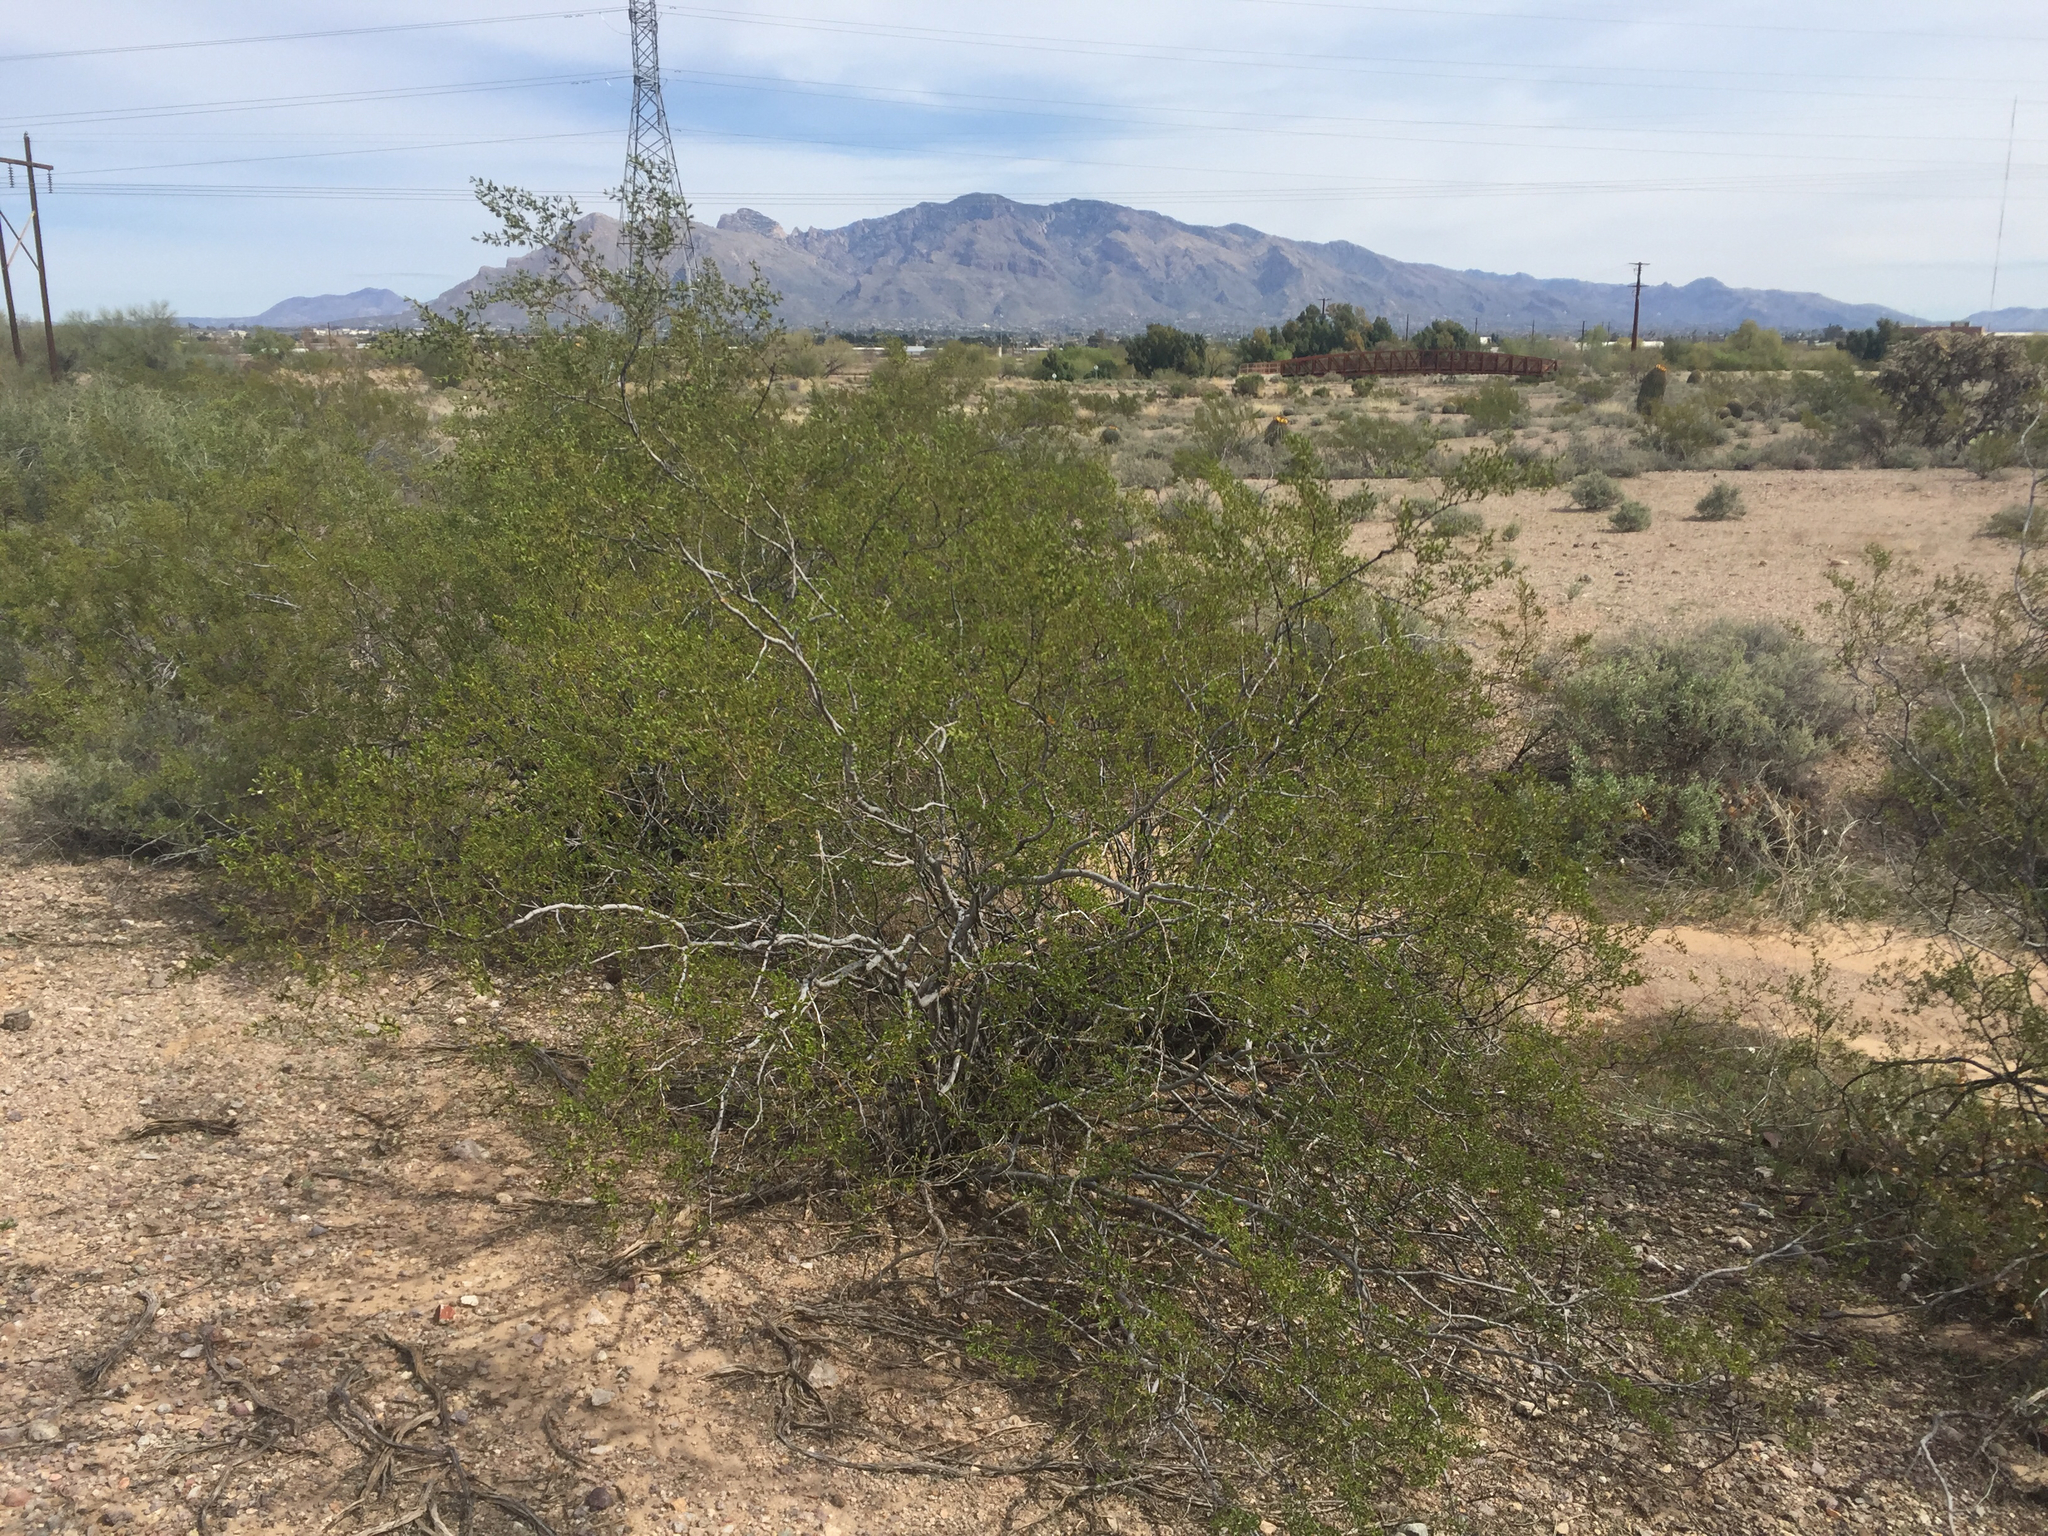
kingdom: Plantae
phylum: Tracheophyta
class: Magnoliopsida
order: Zygophyllales
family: Zygophyllaceae
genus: Larrea
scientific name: Larrea tridentata
